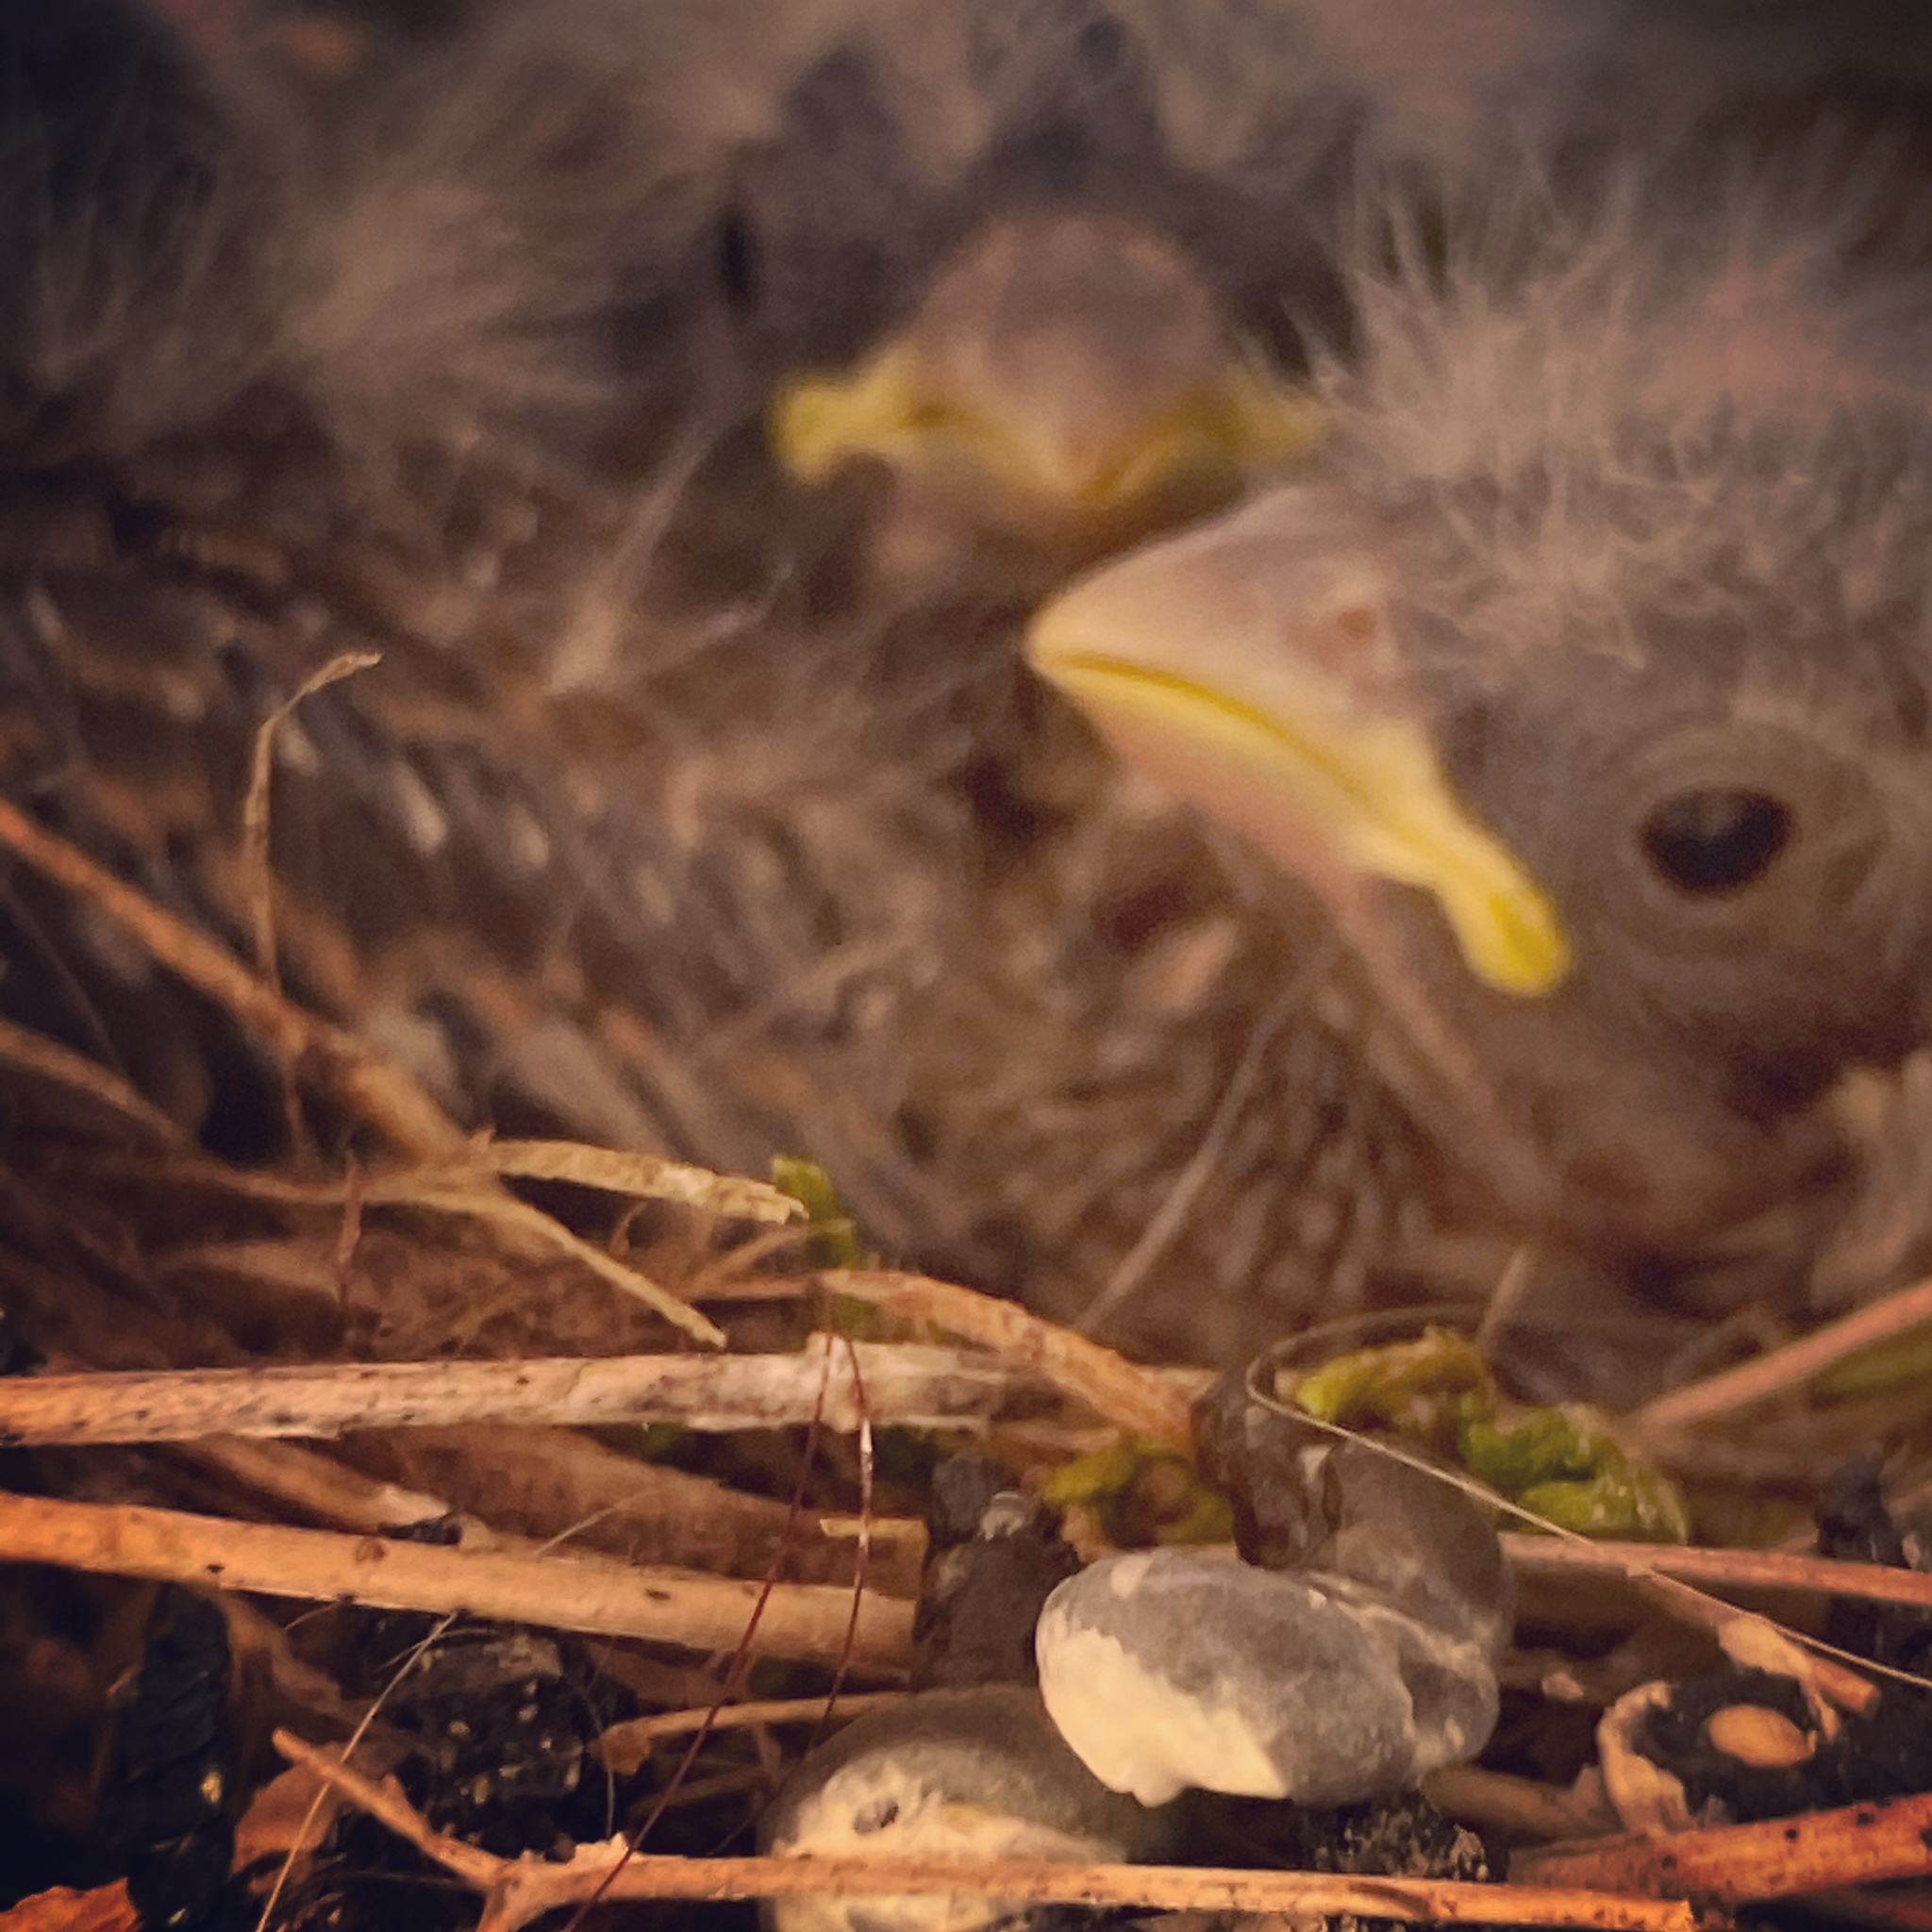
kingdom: Animalia
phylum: Chordata
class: Aves
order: Passeriformes
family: Turdidae
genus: Sialia
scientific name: Sialia sialis
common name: Eastern bluebird
